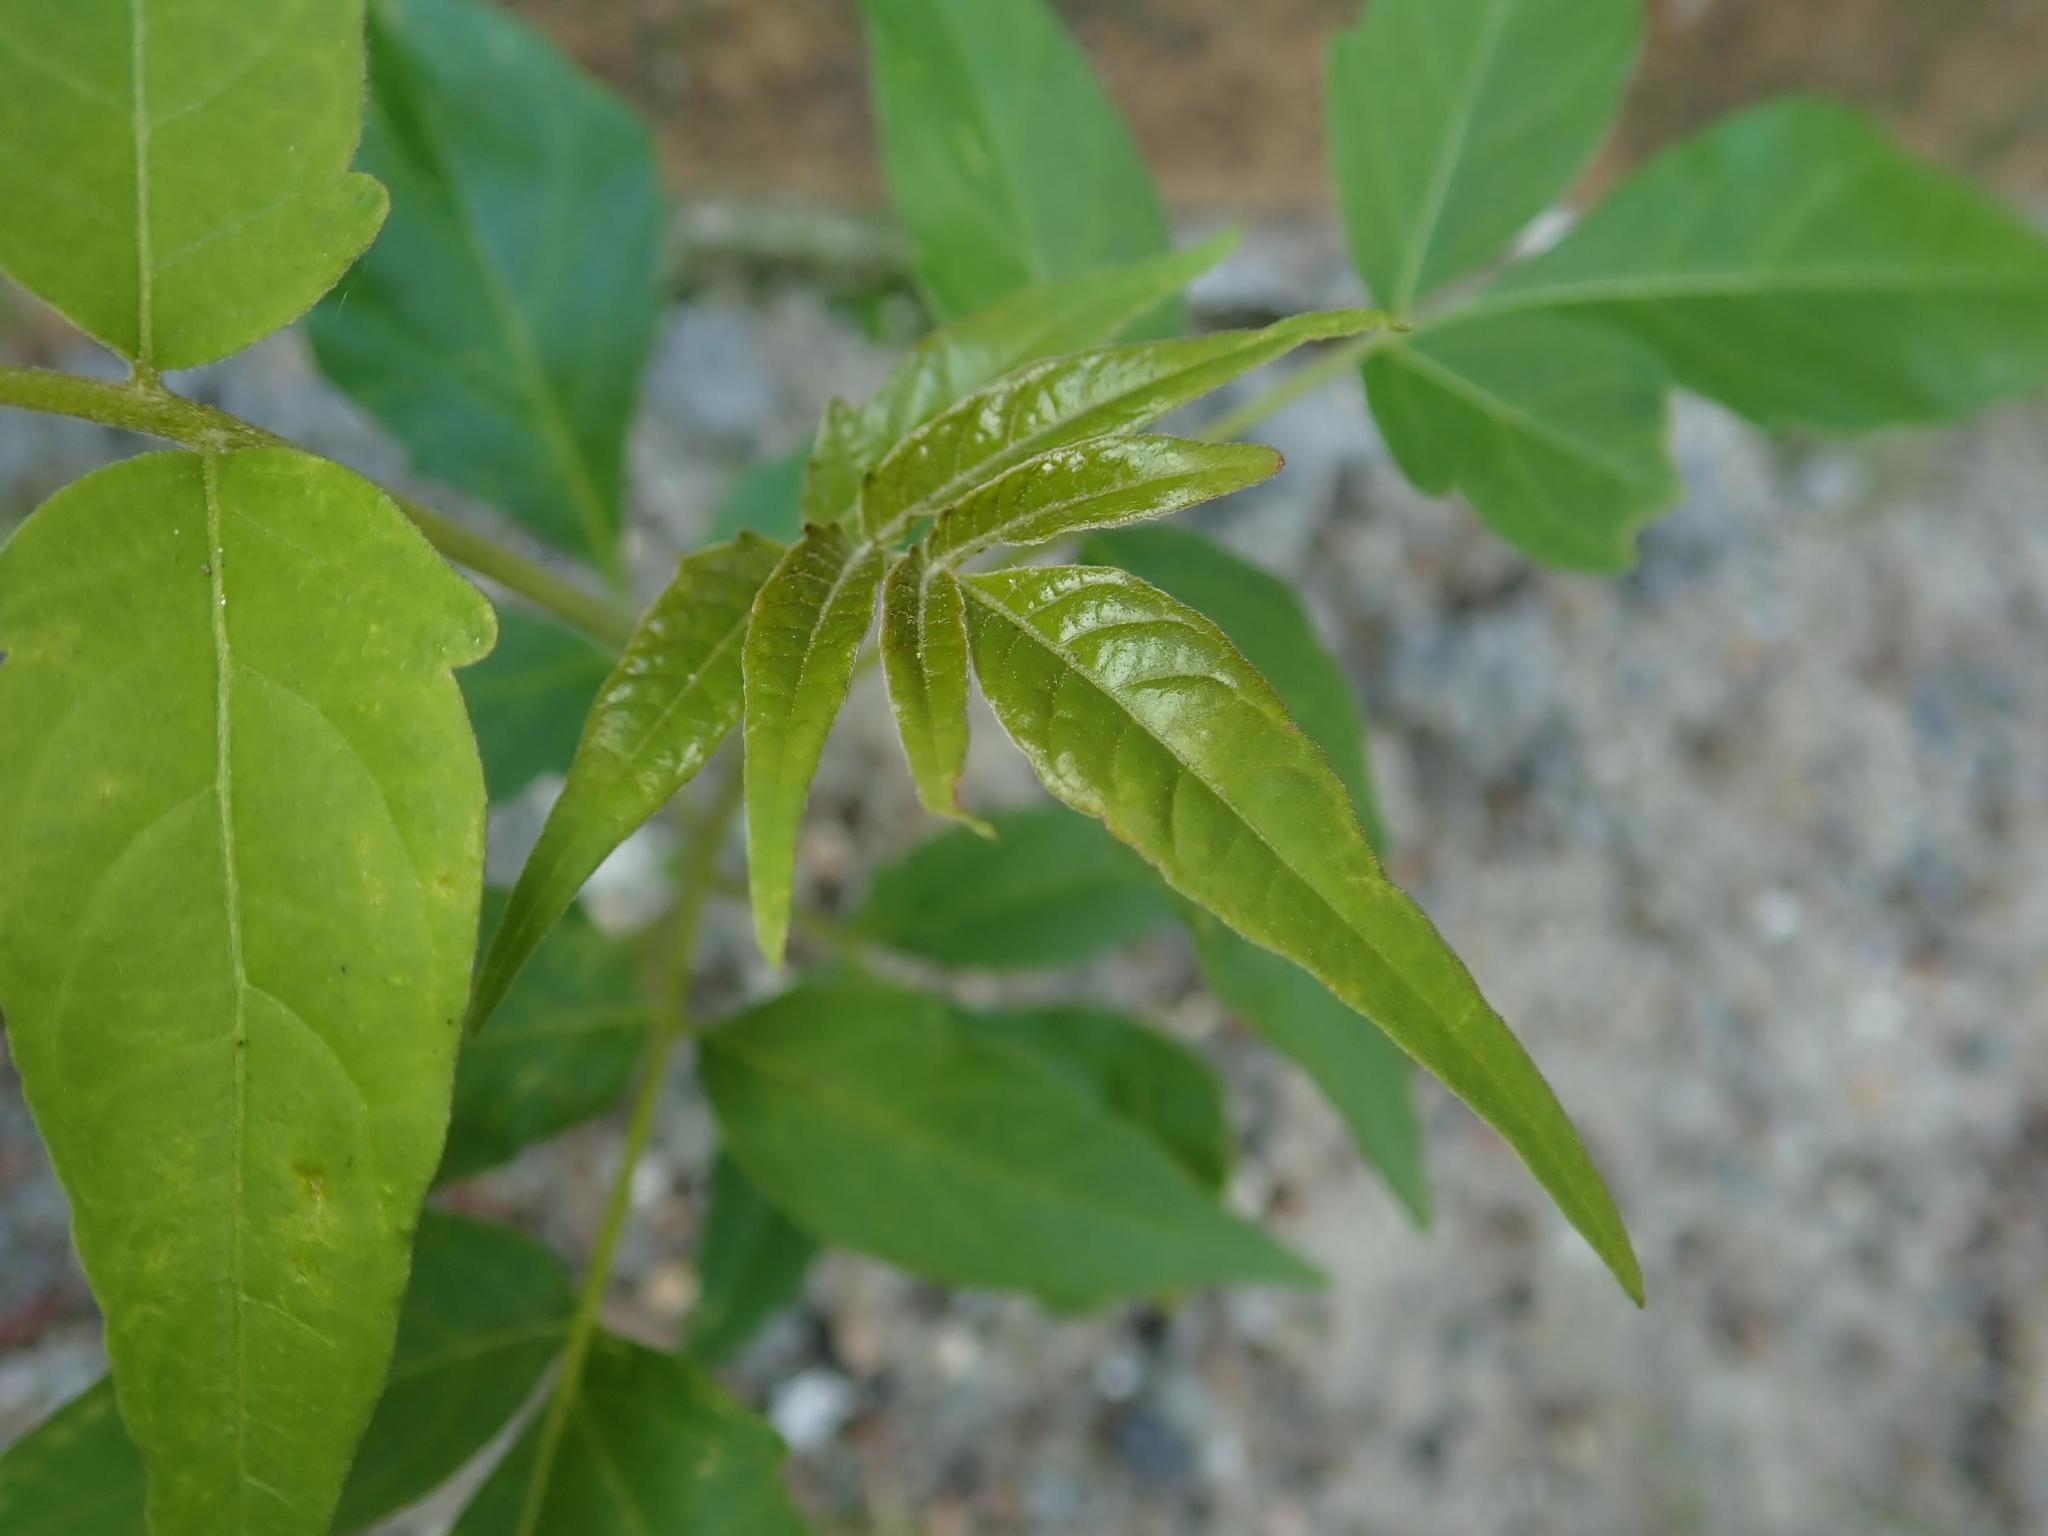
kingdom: Plantae
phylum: Tracheophyta
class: Magnoliopsida
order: Sapindales
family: Simaroubaceae
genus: Ailanthus
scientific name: Ailanthus altissima
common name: Tree-of-heaven
